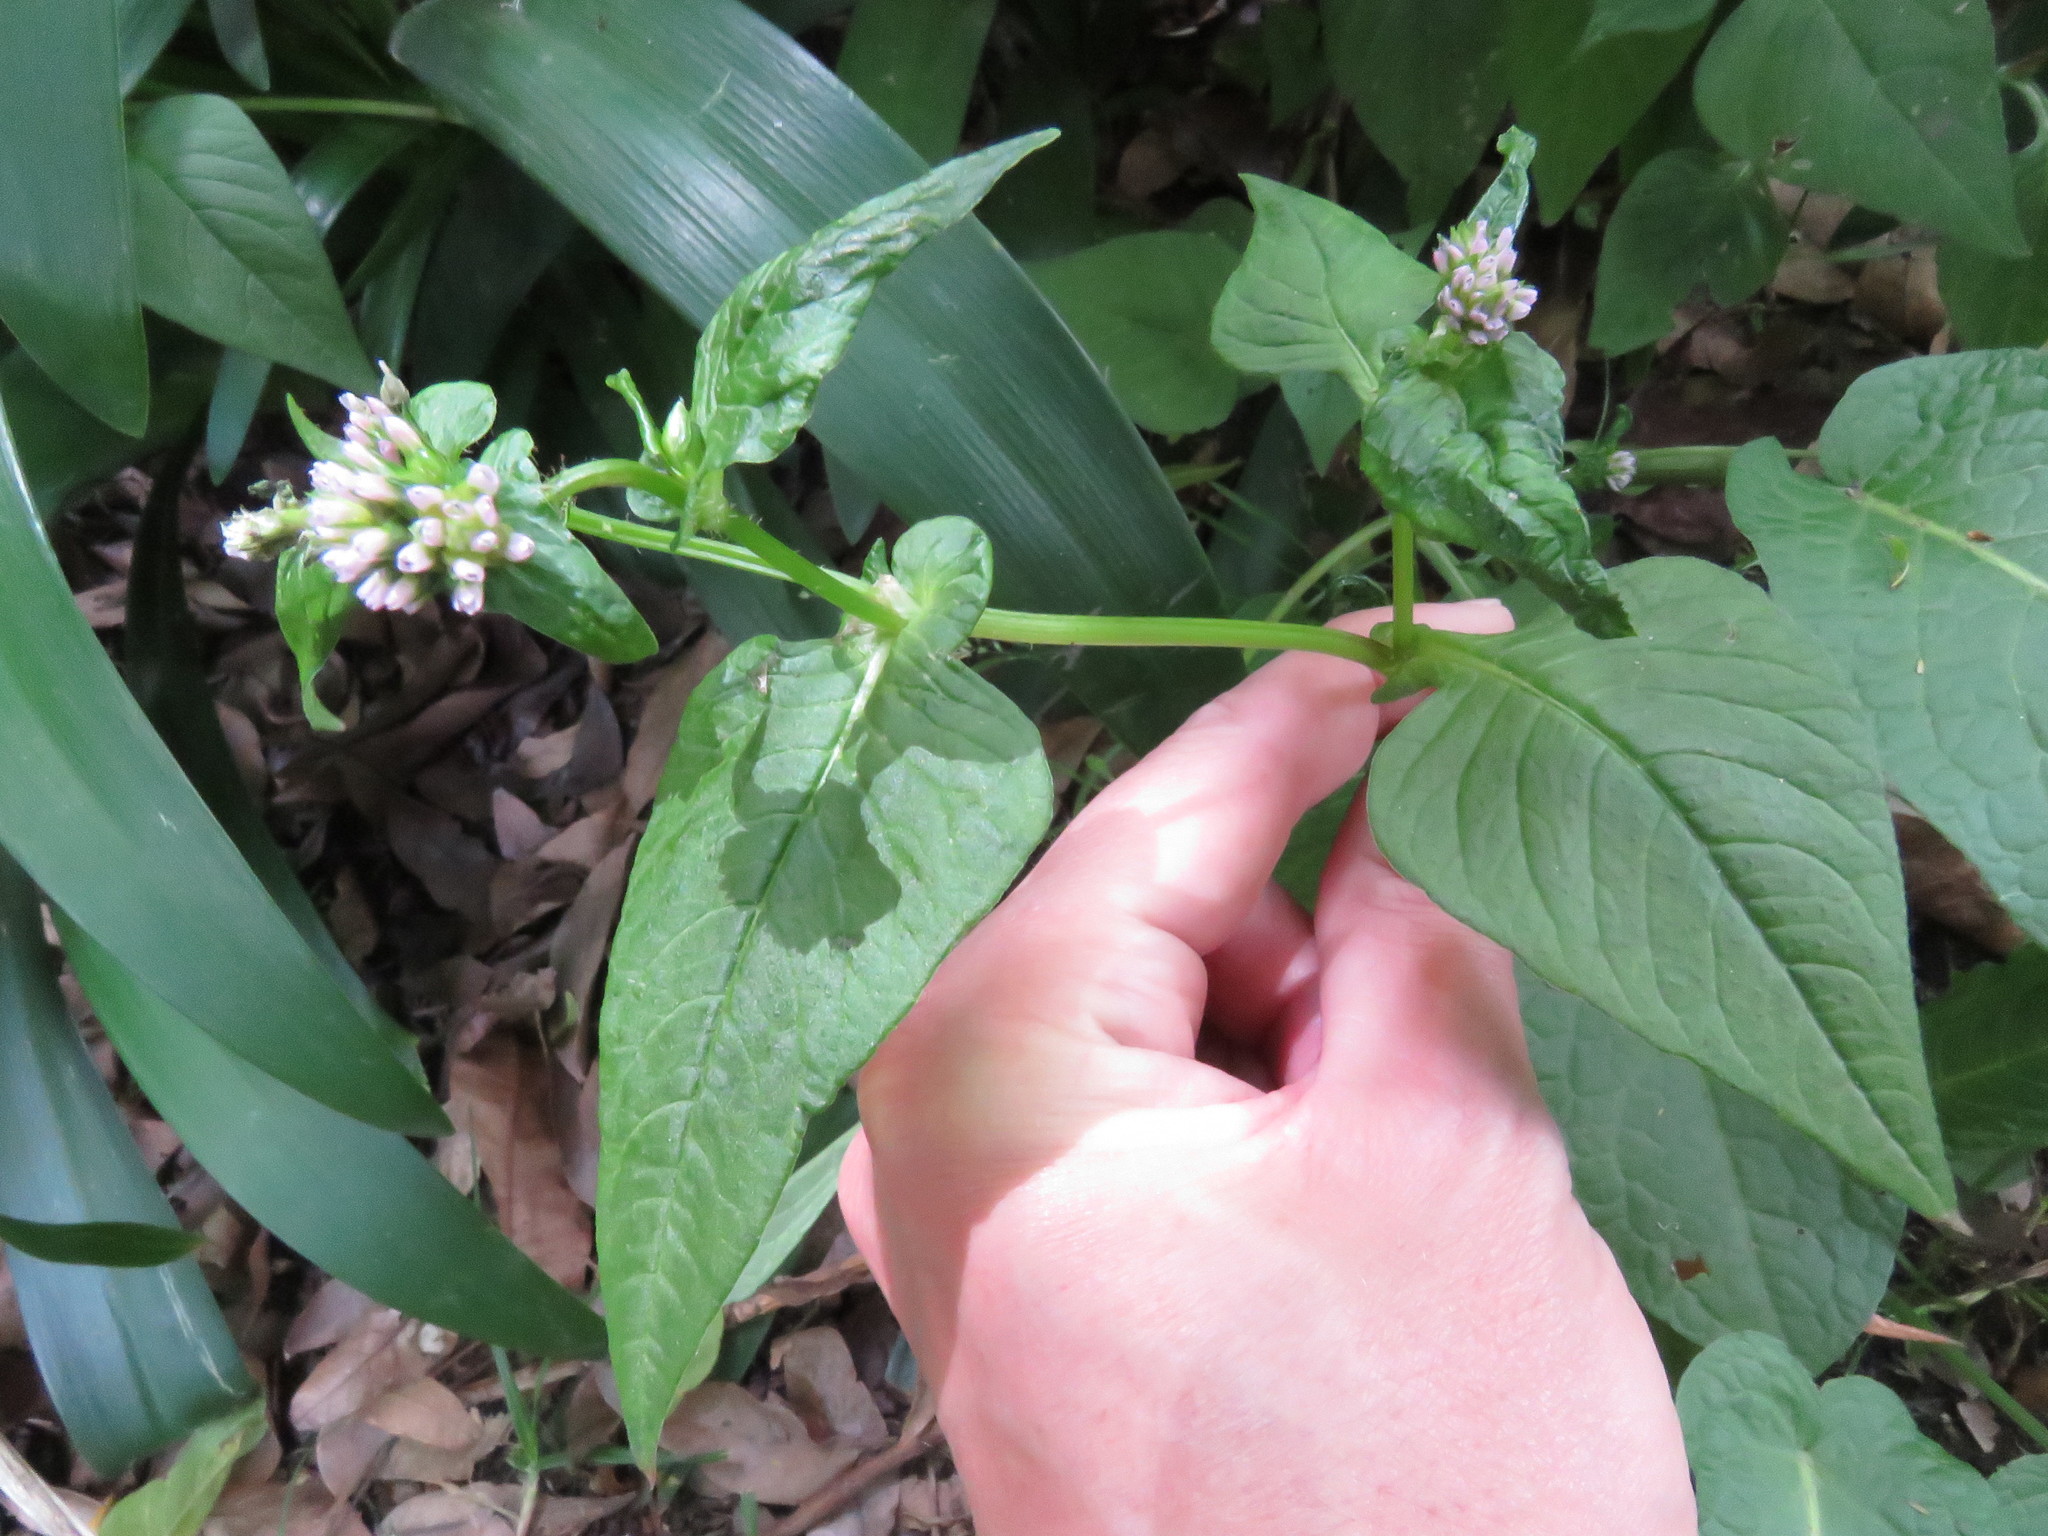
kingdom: Plantae
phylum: Tracheophyta
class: Magnoliopsida
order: Caryophyllales
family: Polygonaceae
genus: Persicaria
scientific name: Persicaria nepalensis
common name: Nepal persicaria
